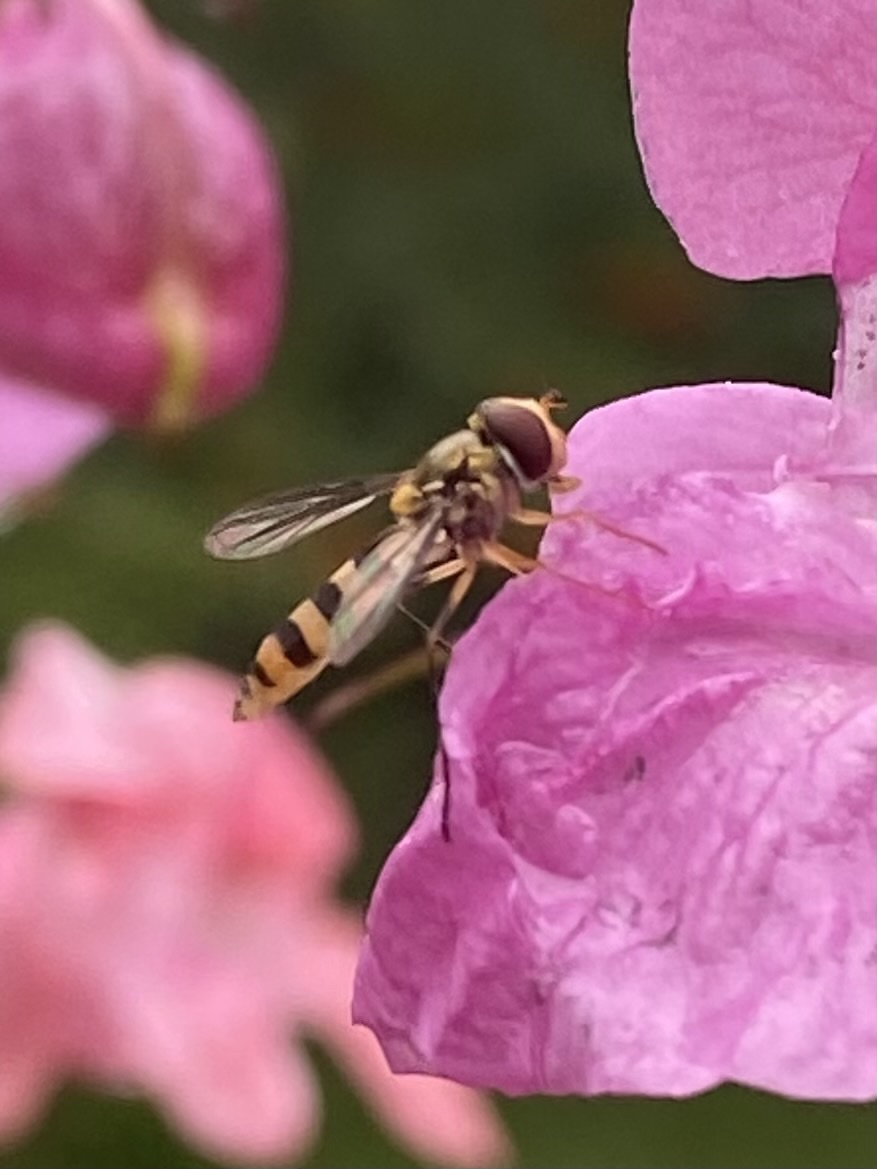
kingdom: Animalia
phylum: Arthropoda
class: Insecta
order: Diptera
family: Syrphidae
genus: Meliscaeva
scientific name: Meliscaeva cinctella
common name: American thintail fly
